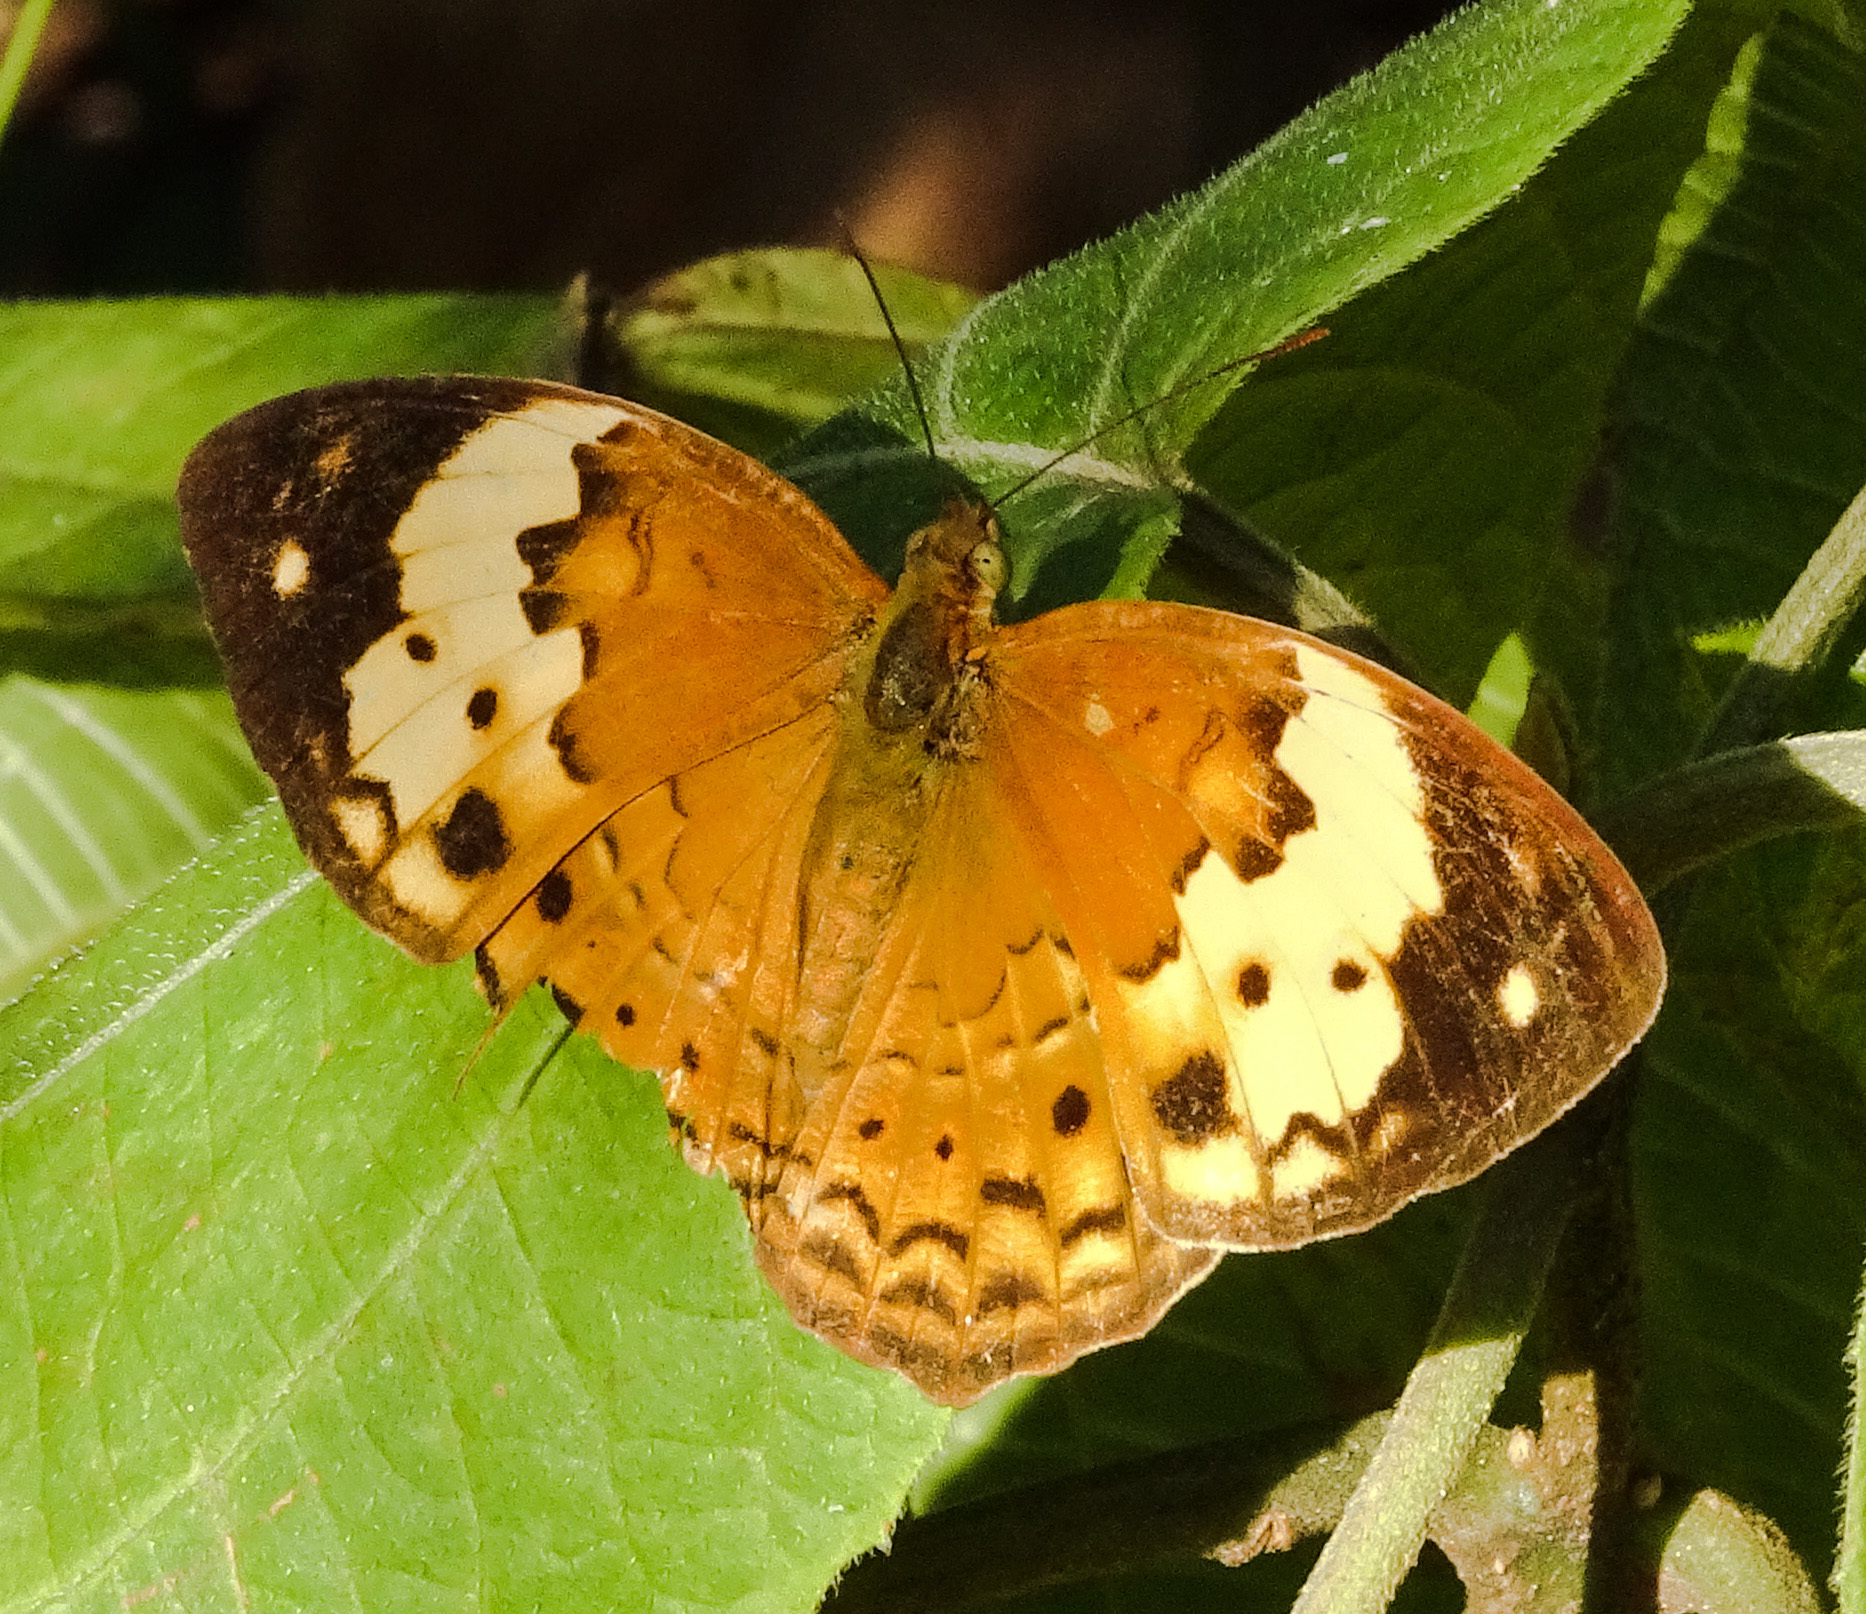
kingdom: Animalia
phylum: Arthropoda
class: Insecta
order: Lepidoptera
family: Nymphalidae
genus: Cupha
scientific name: Cupha erymanthis
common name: Rustic
